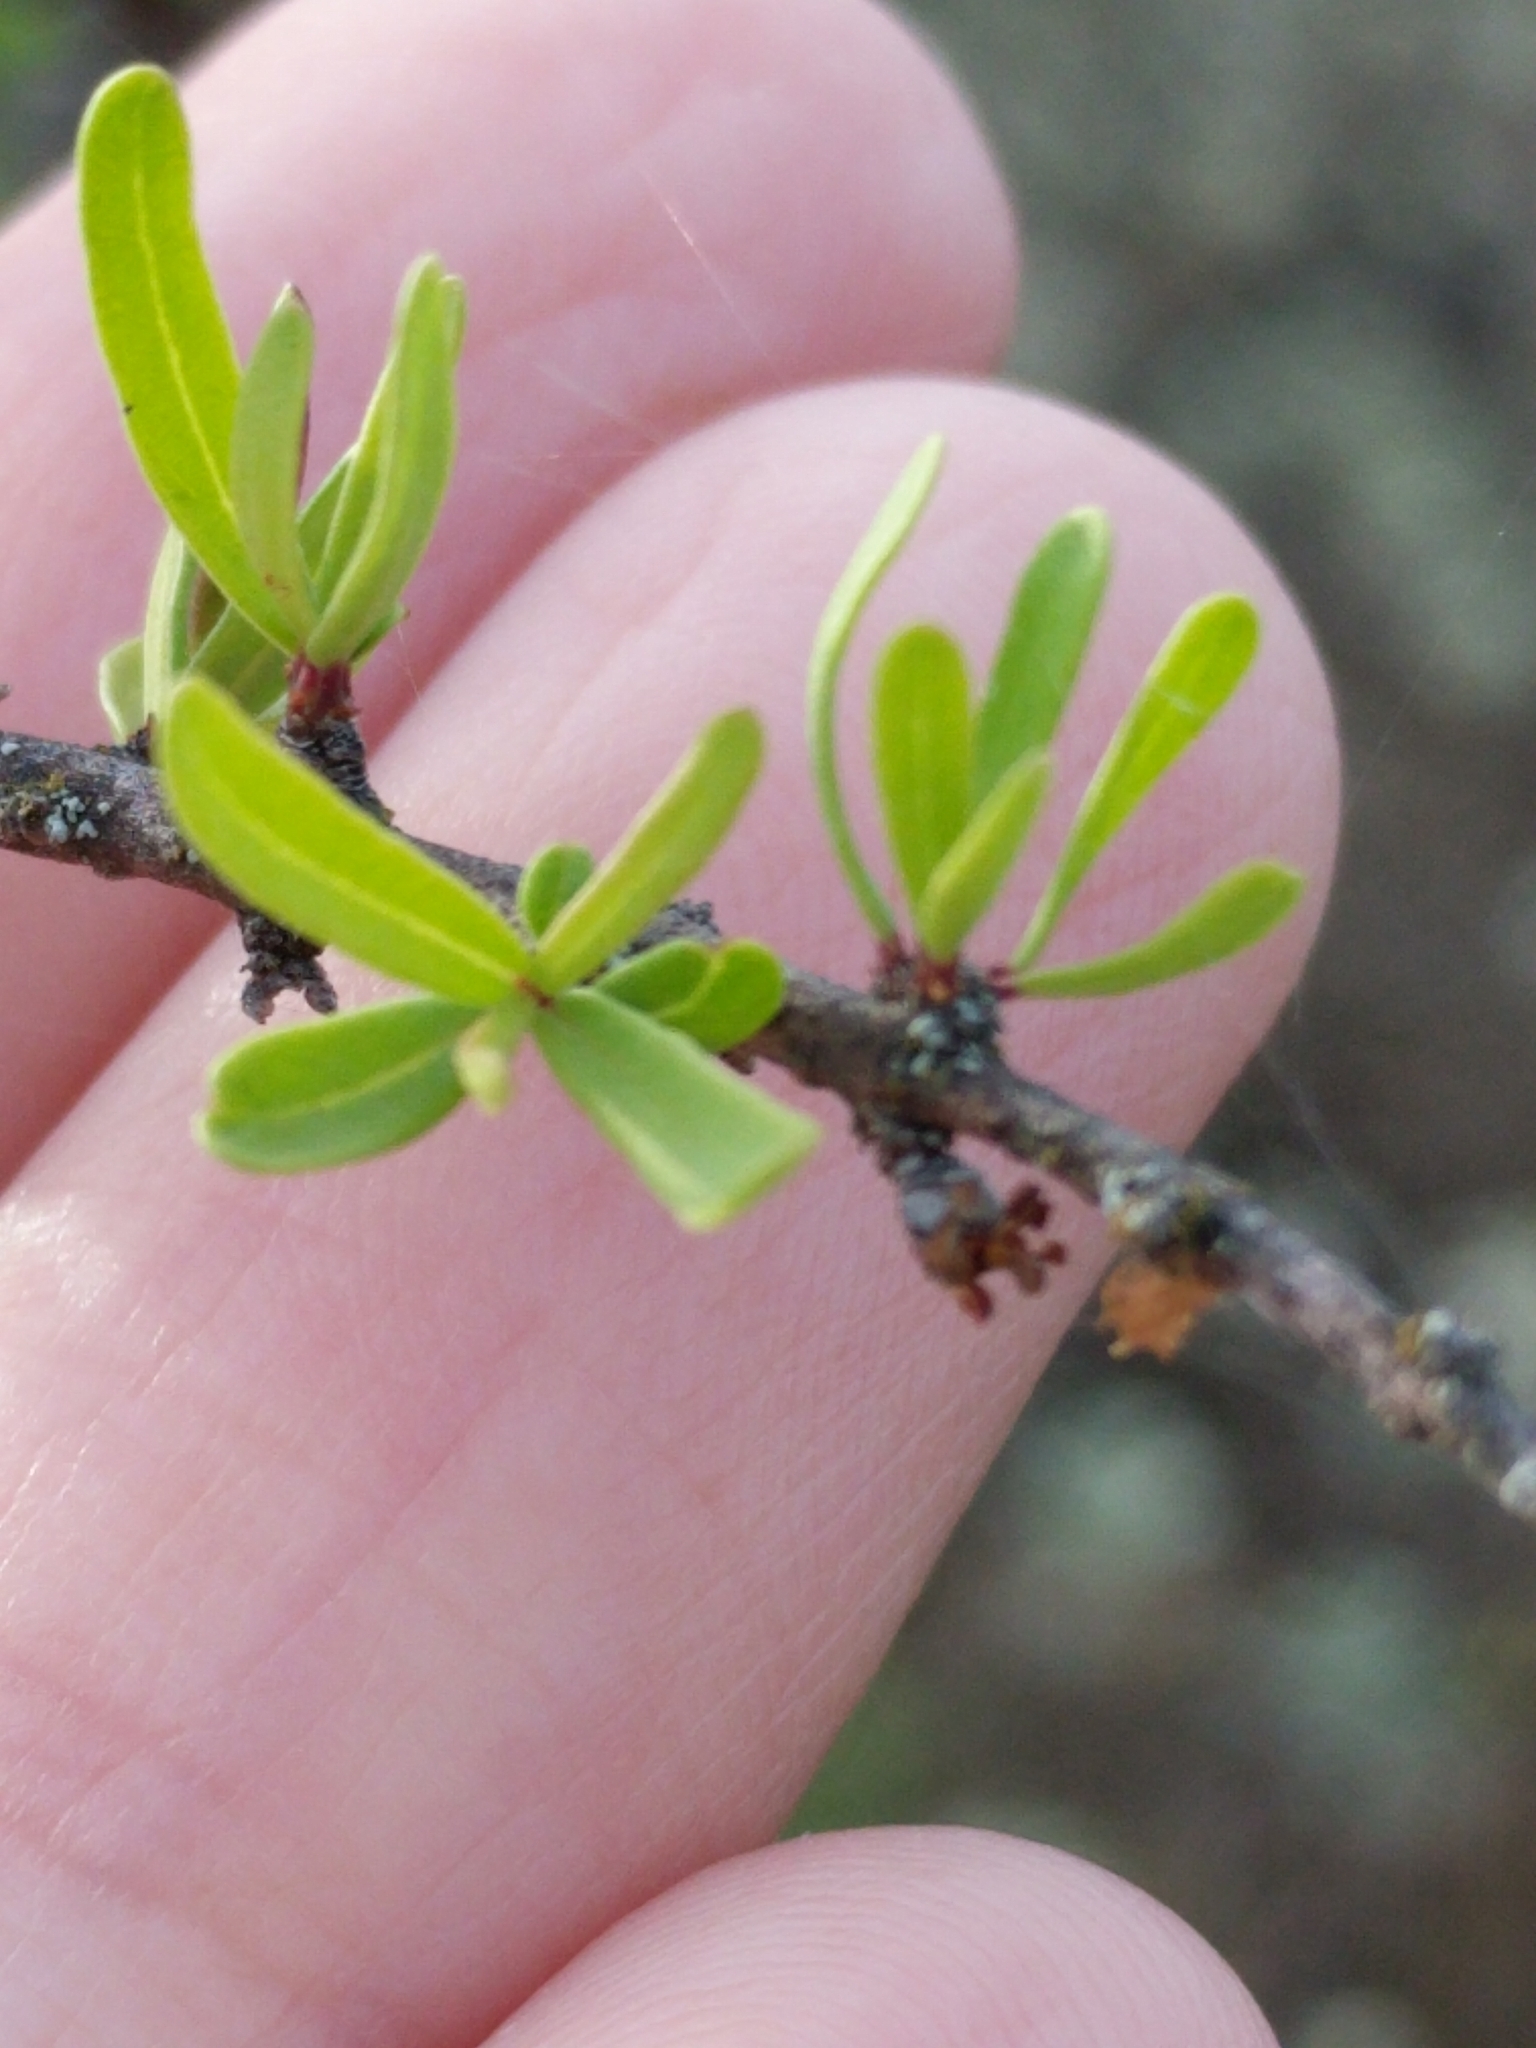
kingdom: Plantae
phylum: Tracheophyta
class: Magnoliopsida
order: Lamiales
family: Oleaceae
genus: Forestiera
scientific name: Forestiera angustifolia
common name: Elbowbush
